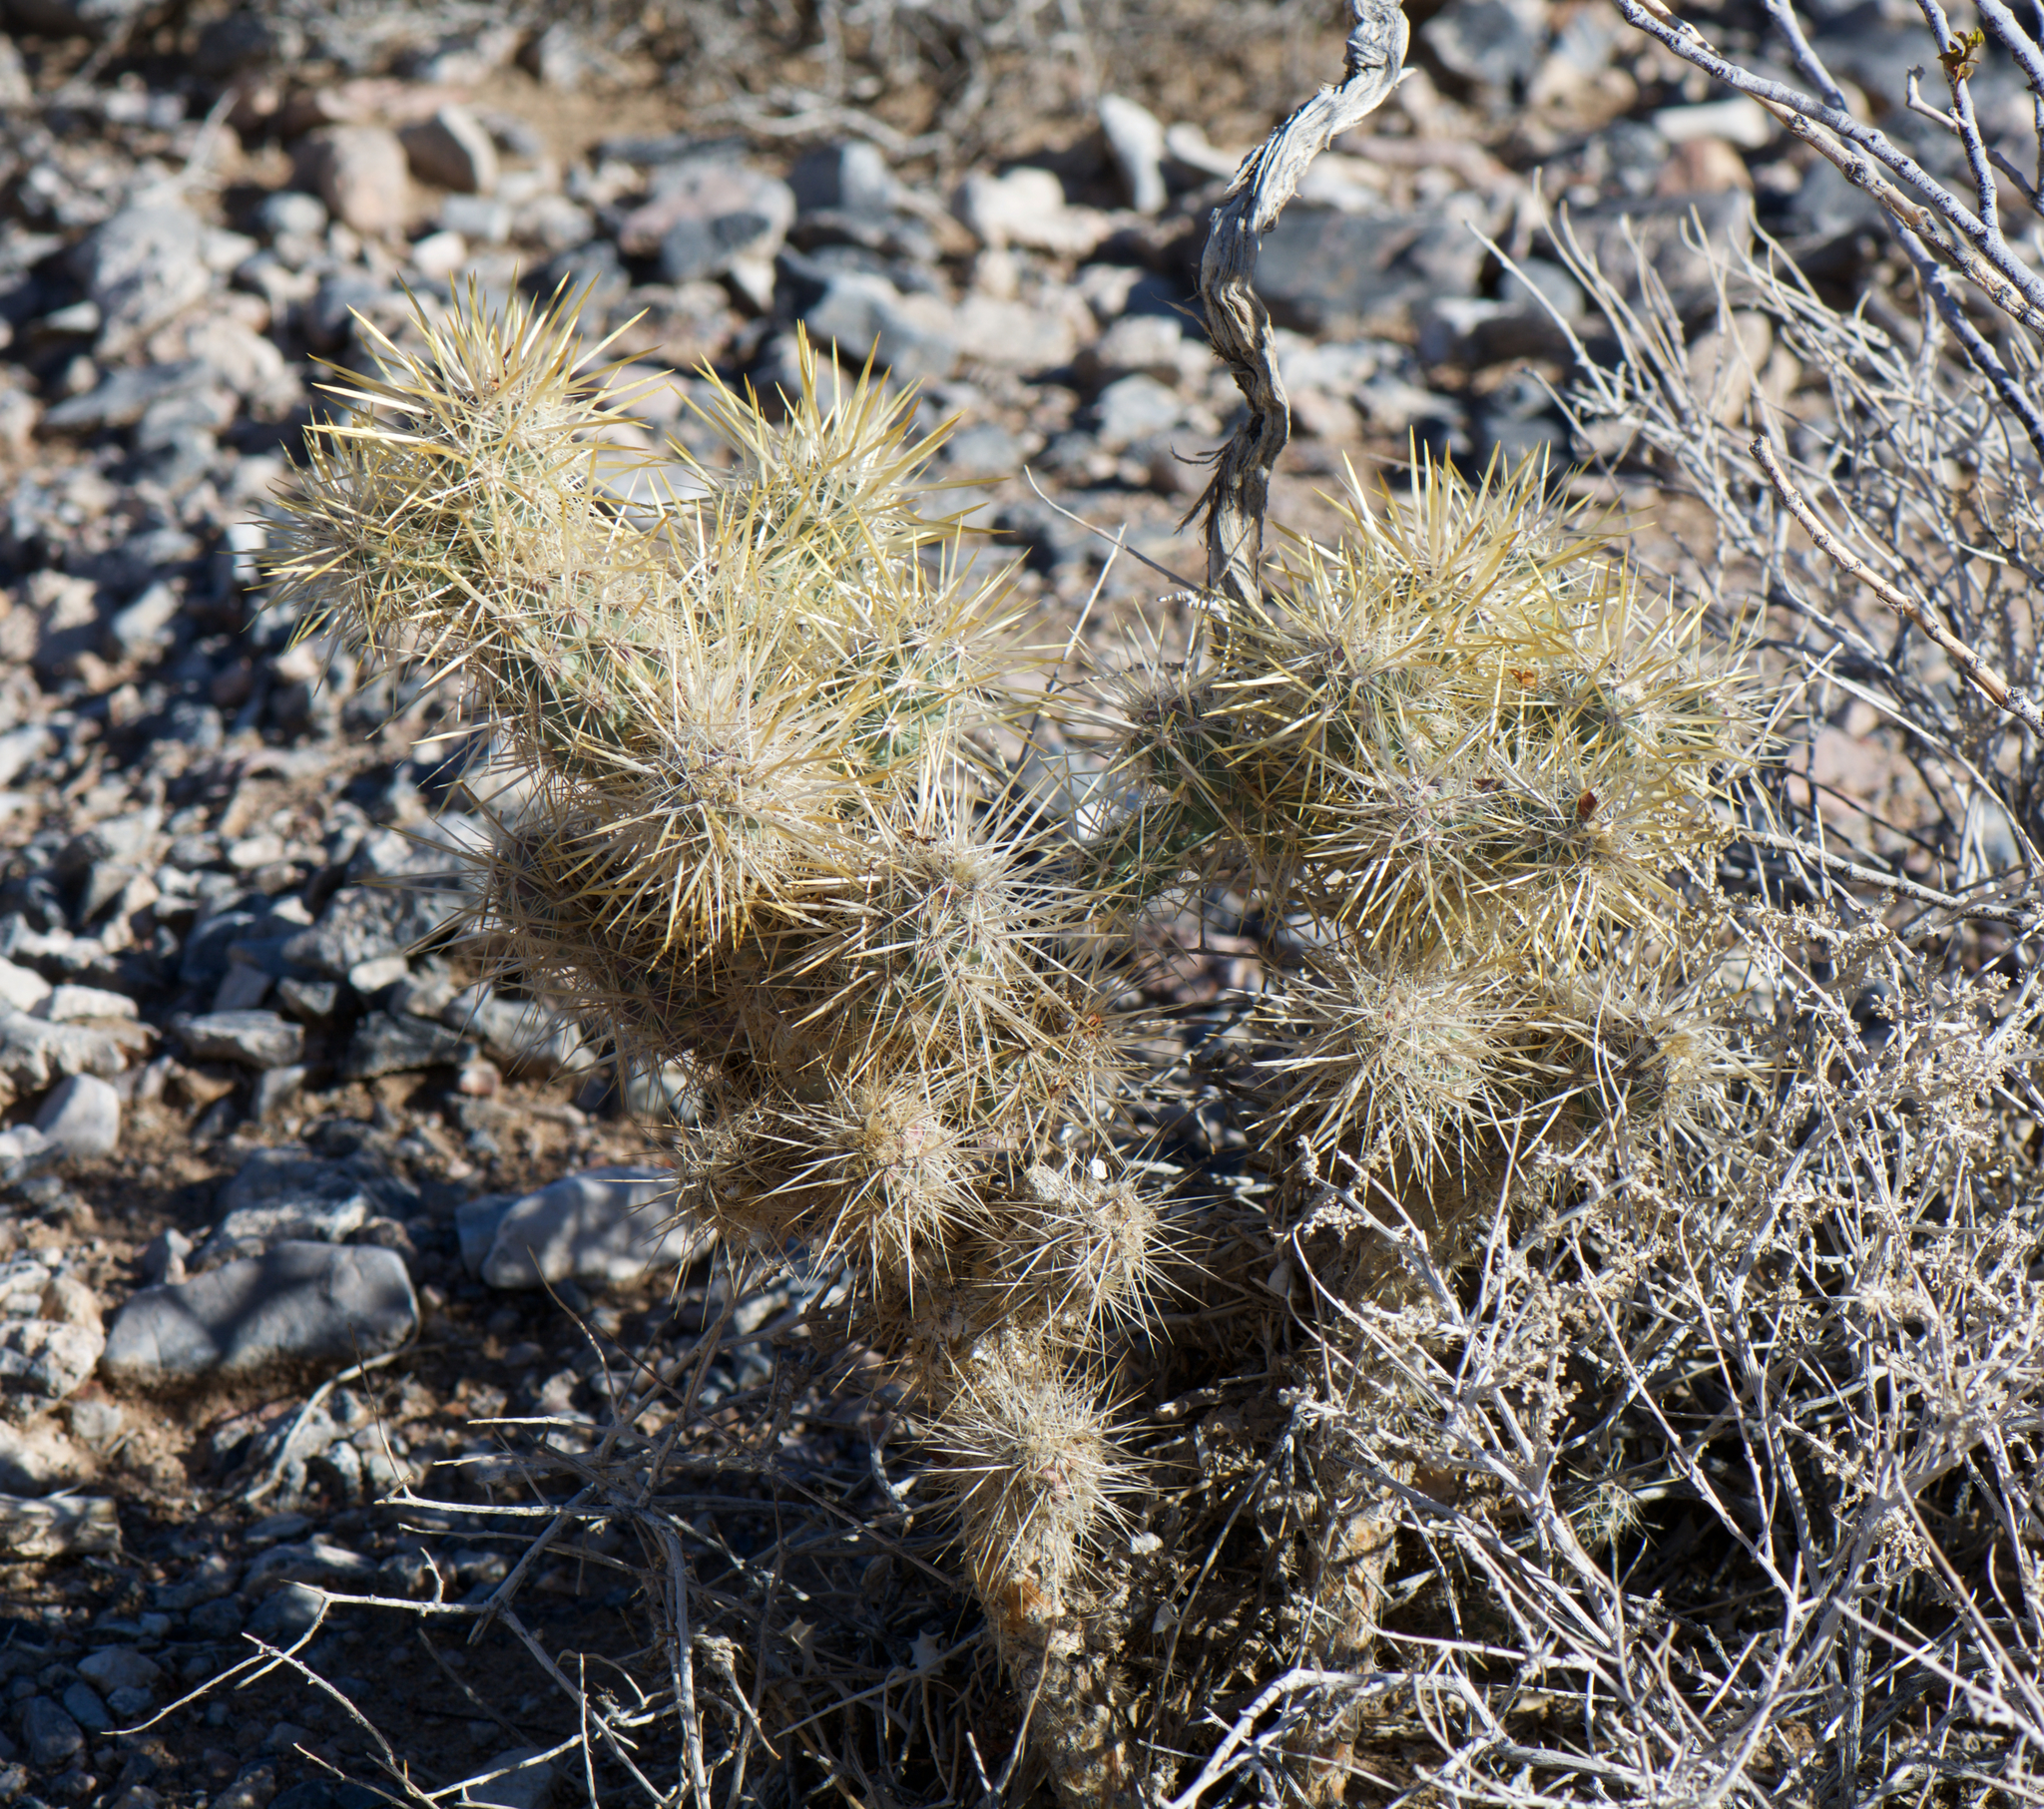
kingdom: Plantae
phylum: Tracheophyta
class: Magnoliopsida
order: Caryophyllales
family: Cactaceae
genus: Cylindropuntia
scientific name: Cylindropuntia echinocarpa
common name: Ground cholla
